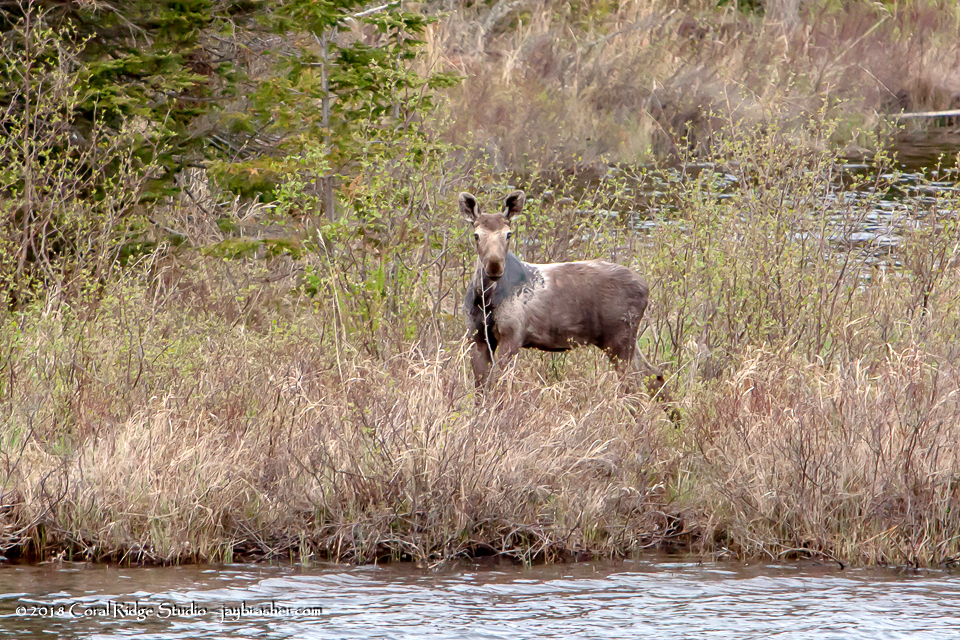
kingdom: Animalia
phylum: Chordata
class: Mammalia
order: Artiodactyla
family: Cervidae
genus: Alces
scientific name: Alces alces
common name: Moose
